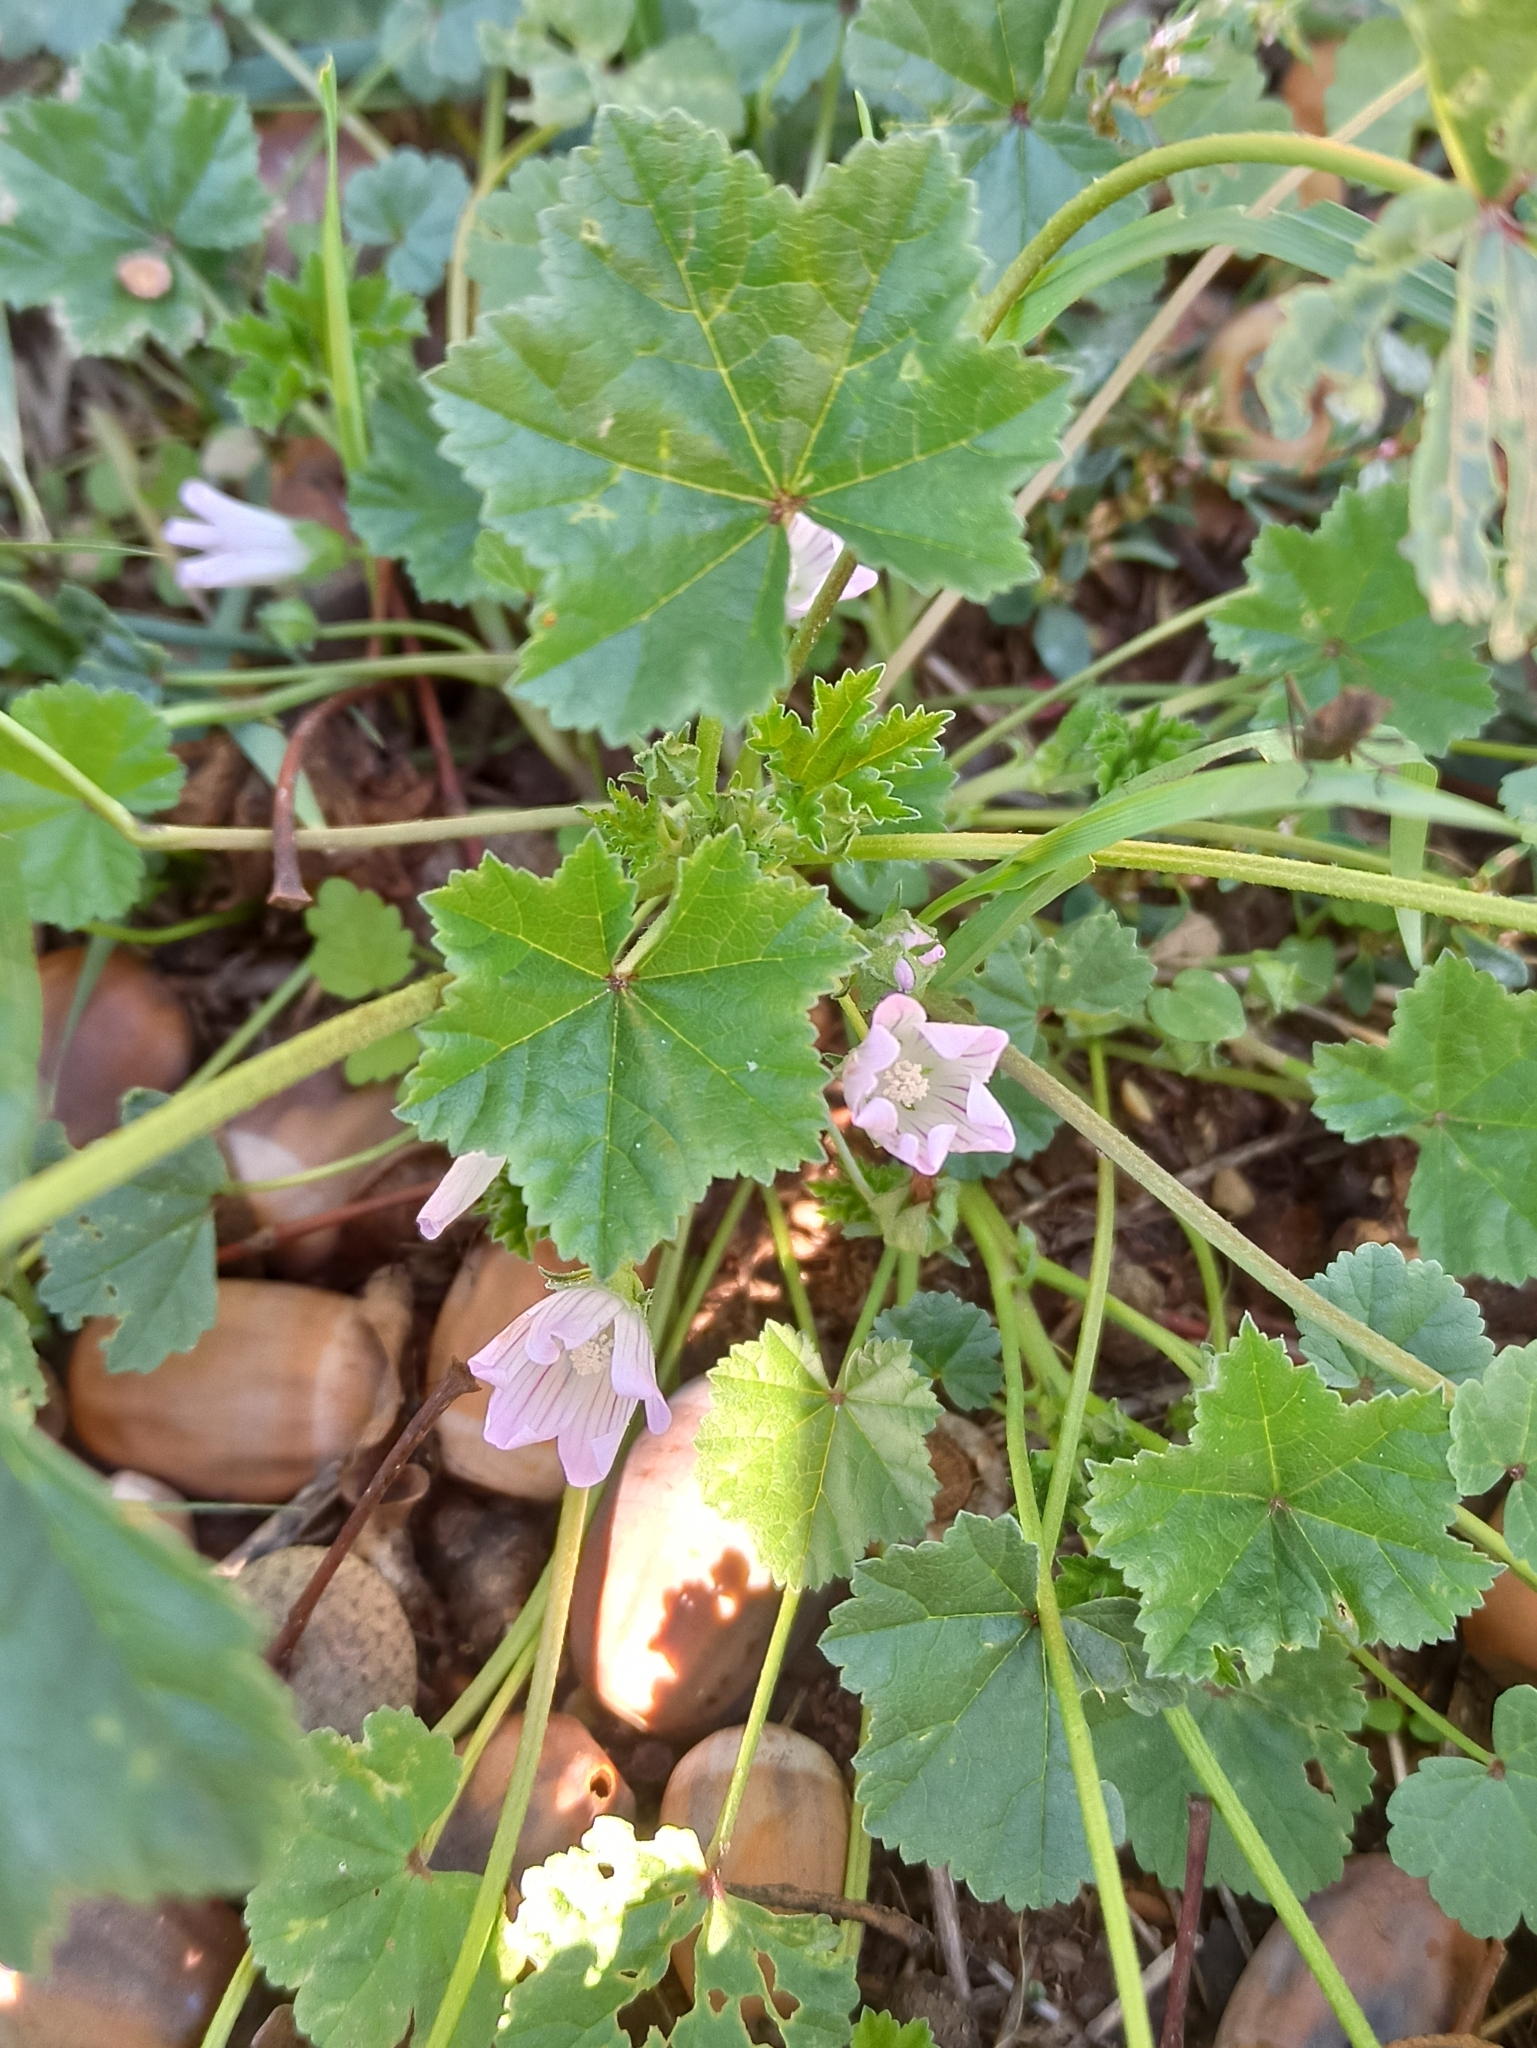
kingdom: Plantae
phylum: Tracheophyta
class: Magnoliopsida
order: Malvales
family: Malvaceae
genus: Malva
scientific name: Malva neglecta
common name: Common mallow
